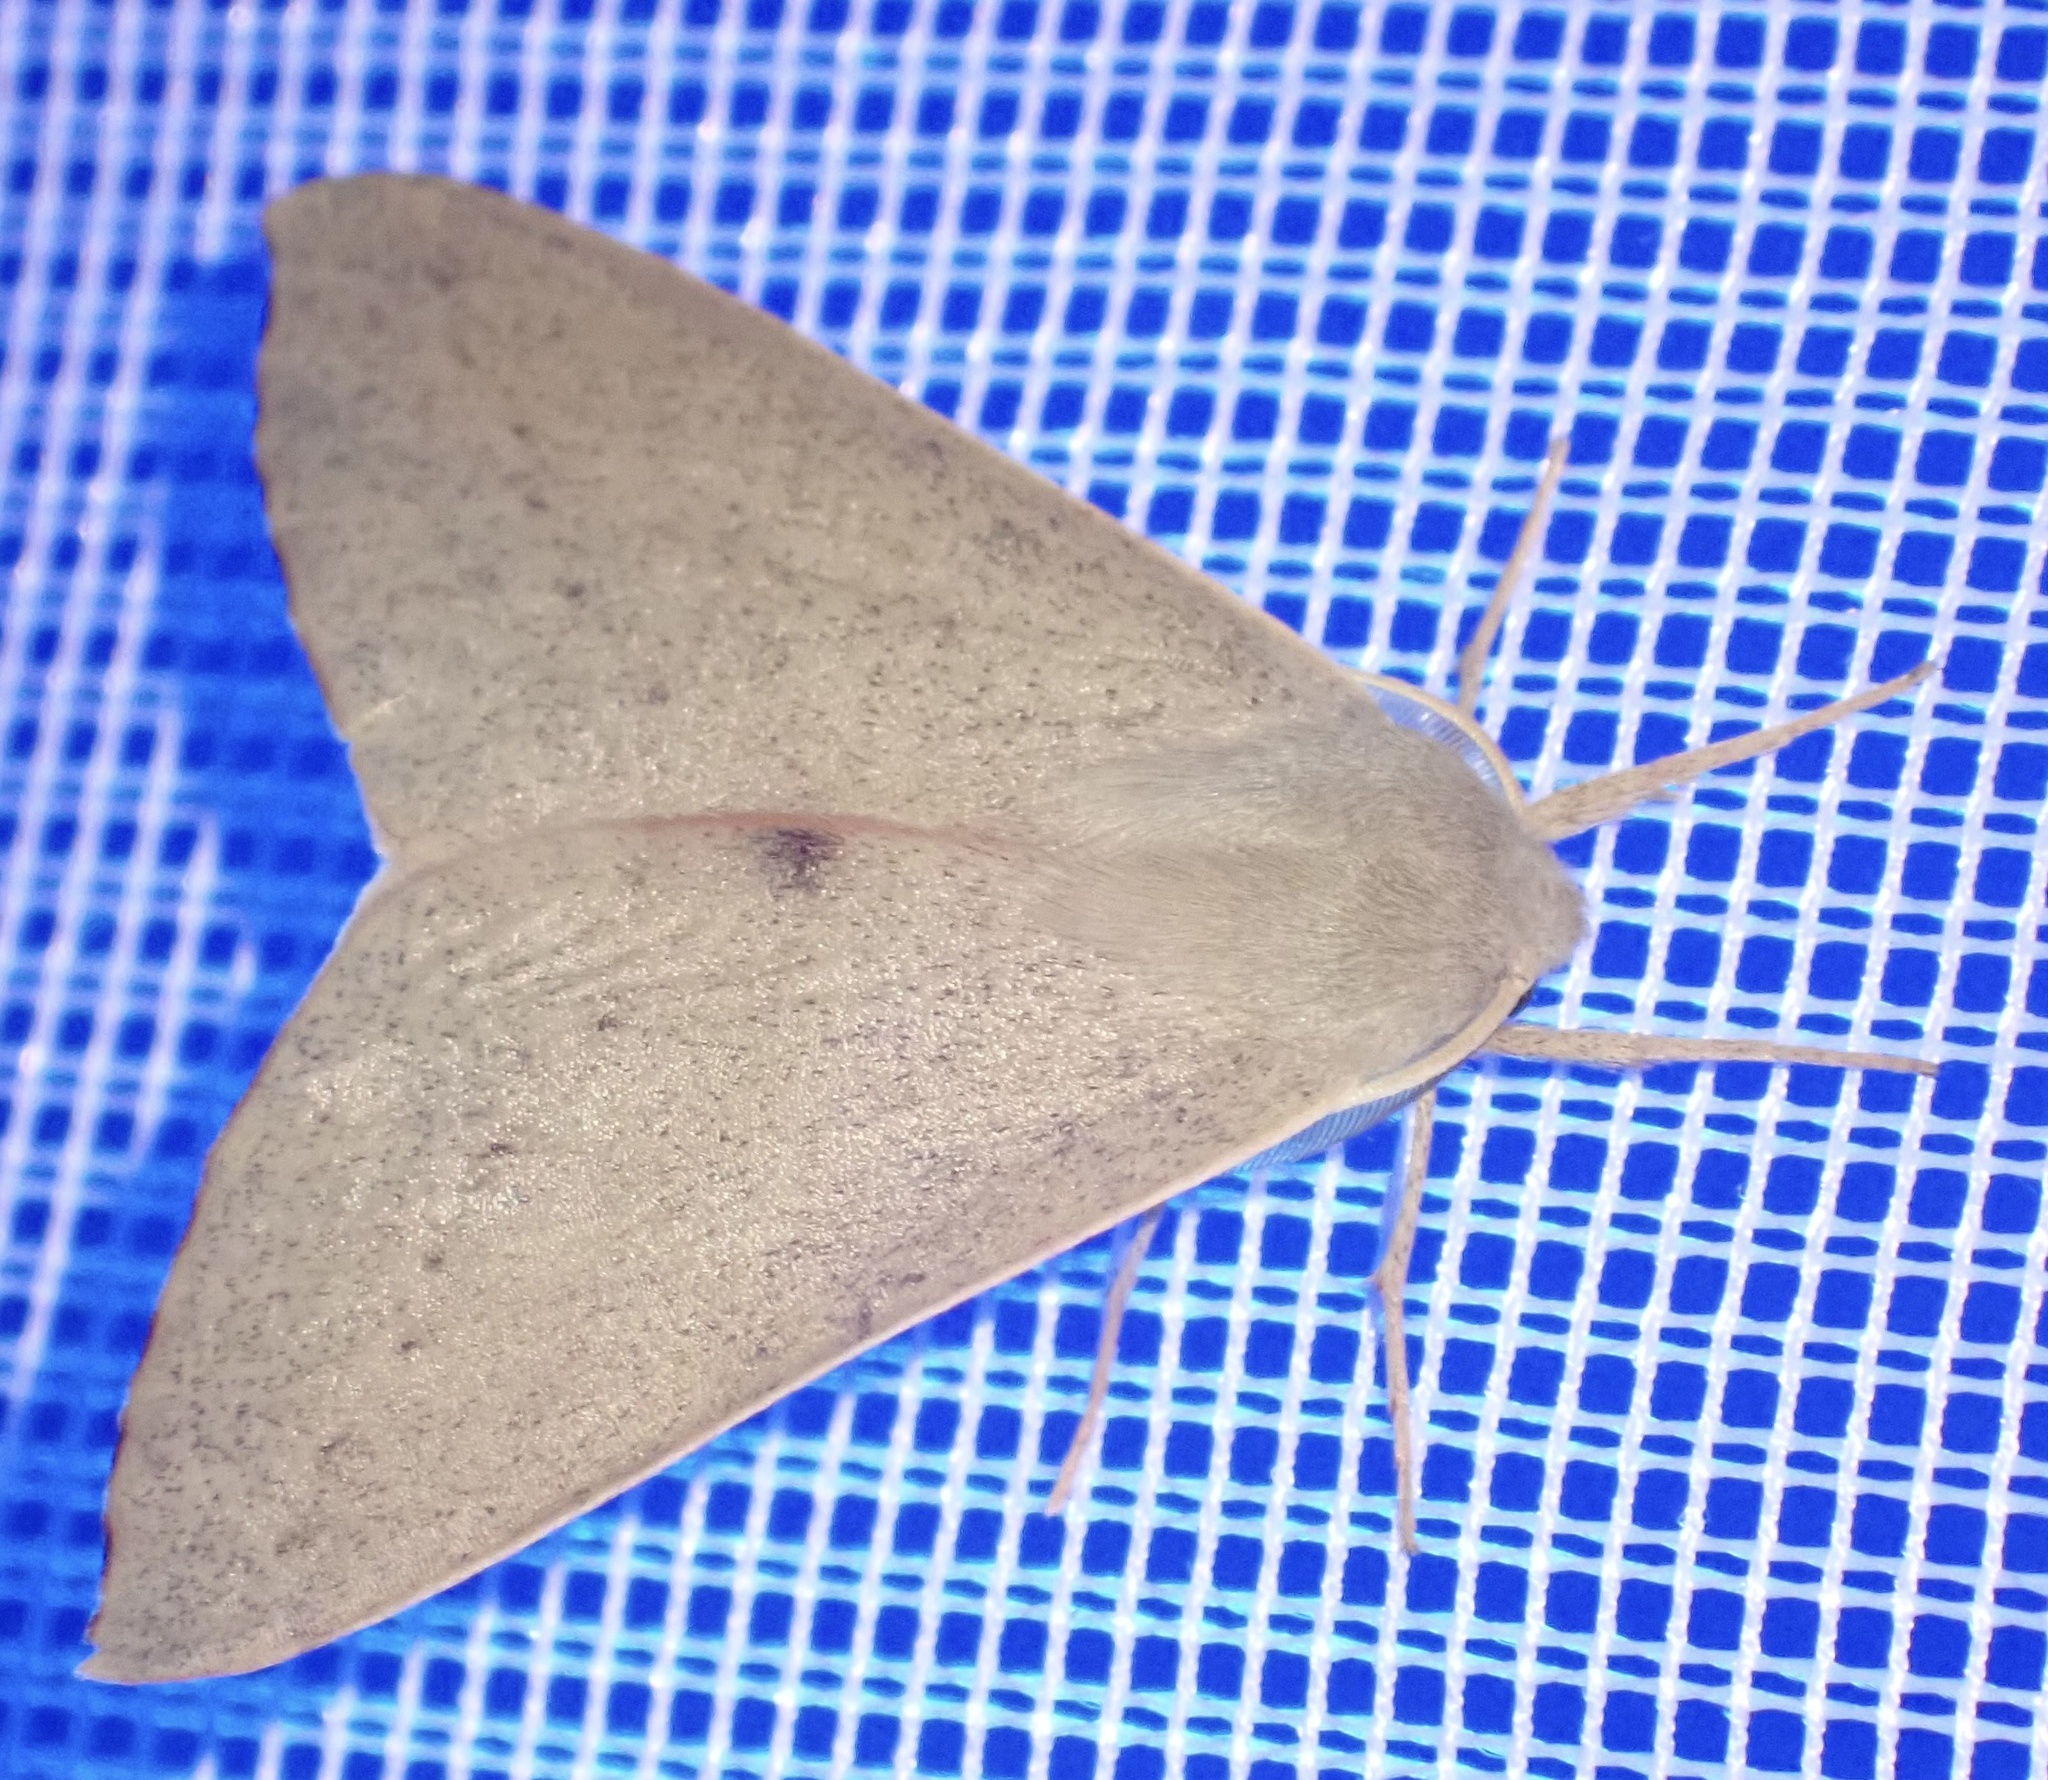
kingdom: Animalia
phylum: Arthropoda
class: Insecta
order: Lepidoptera
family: Geometridae
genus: Arhodia
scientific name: Arhodia lasiocamparia
